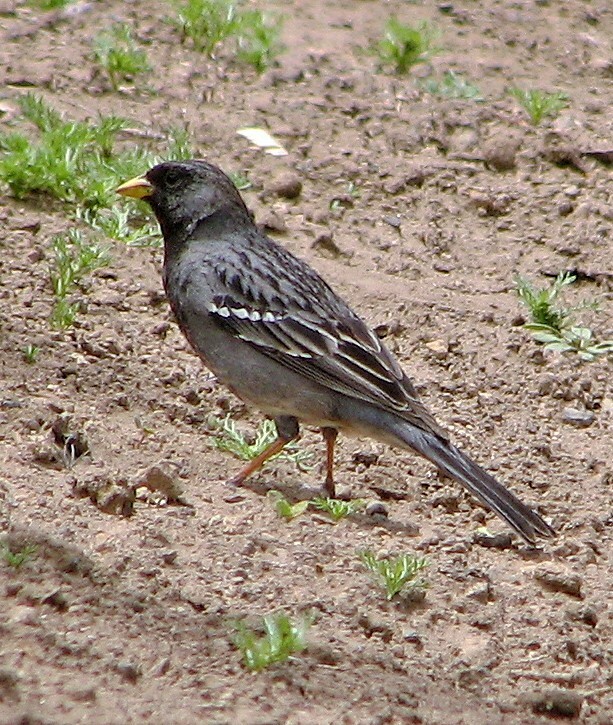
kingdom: Animalia
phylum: Chordata
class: Aves
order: Passeriformes
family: Thraupidae
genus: Rhopospina
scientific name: Rhopospina fruticeti
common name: Mourning sierra finch
